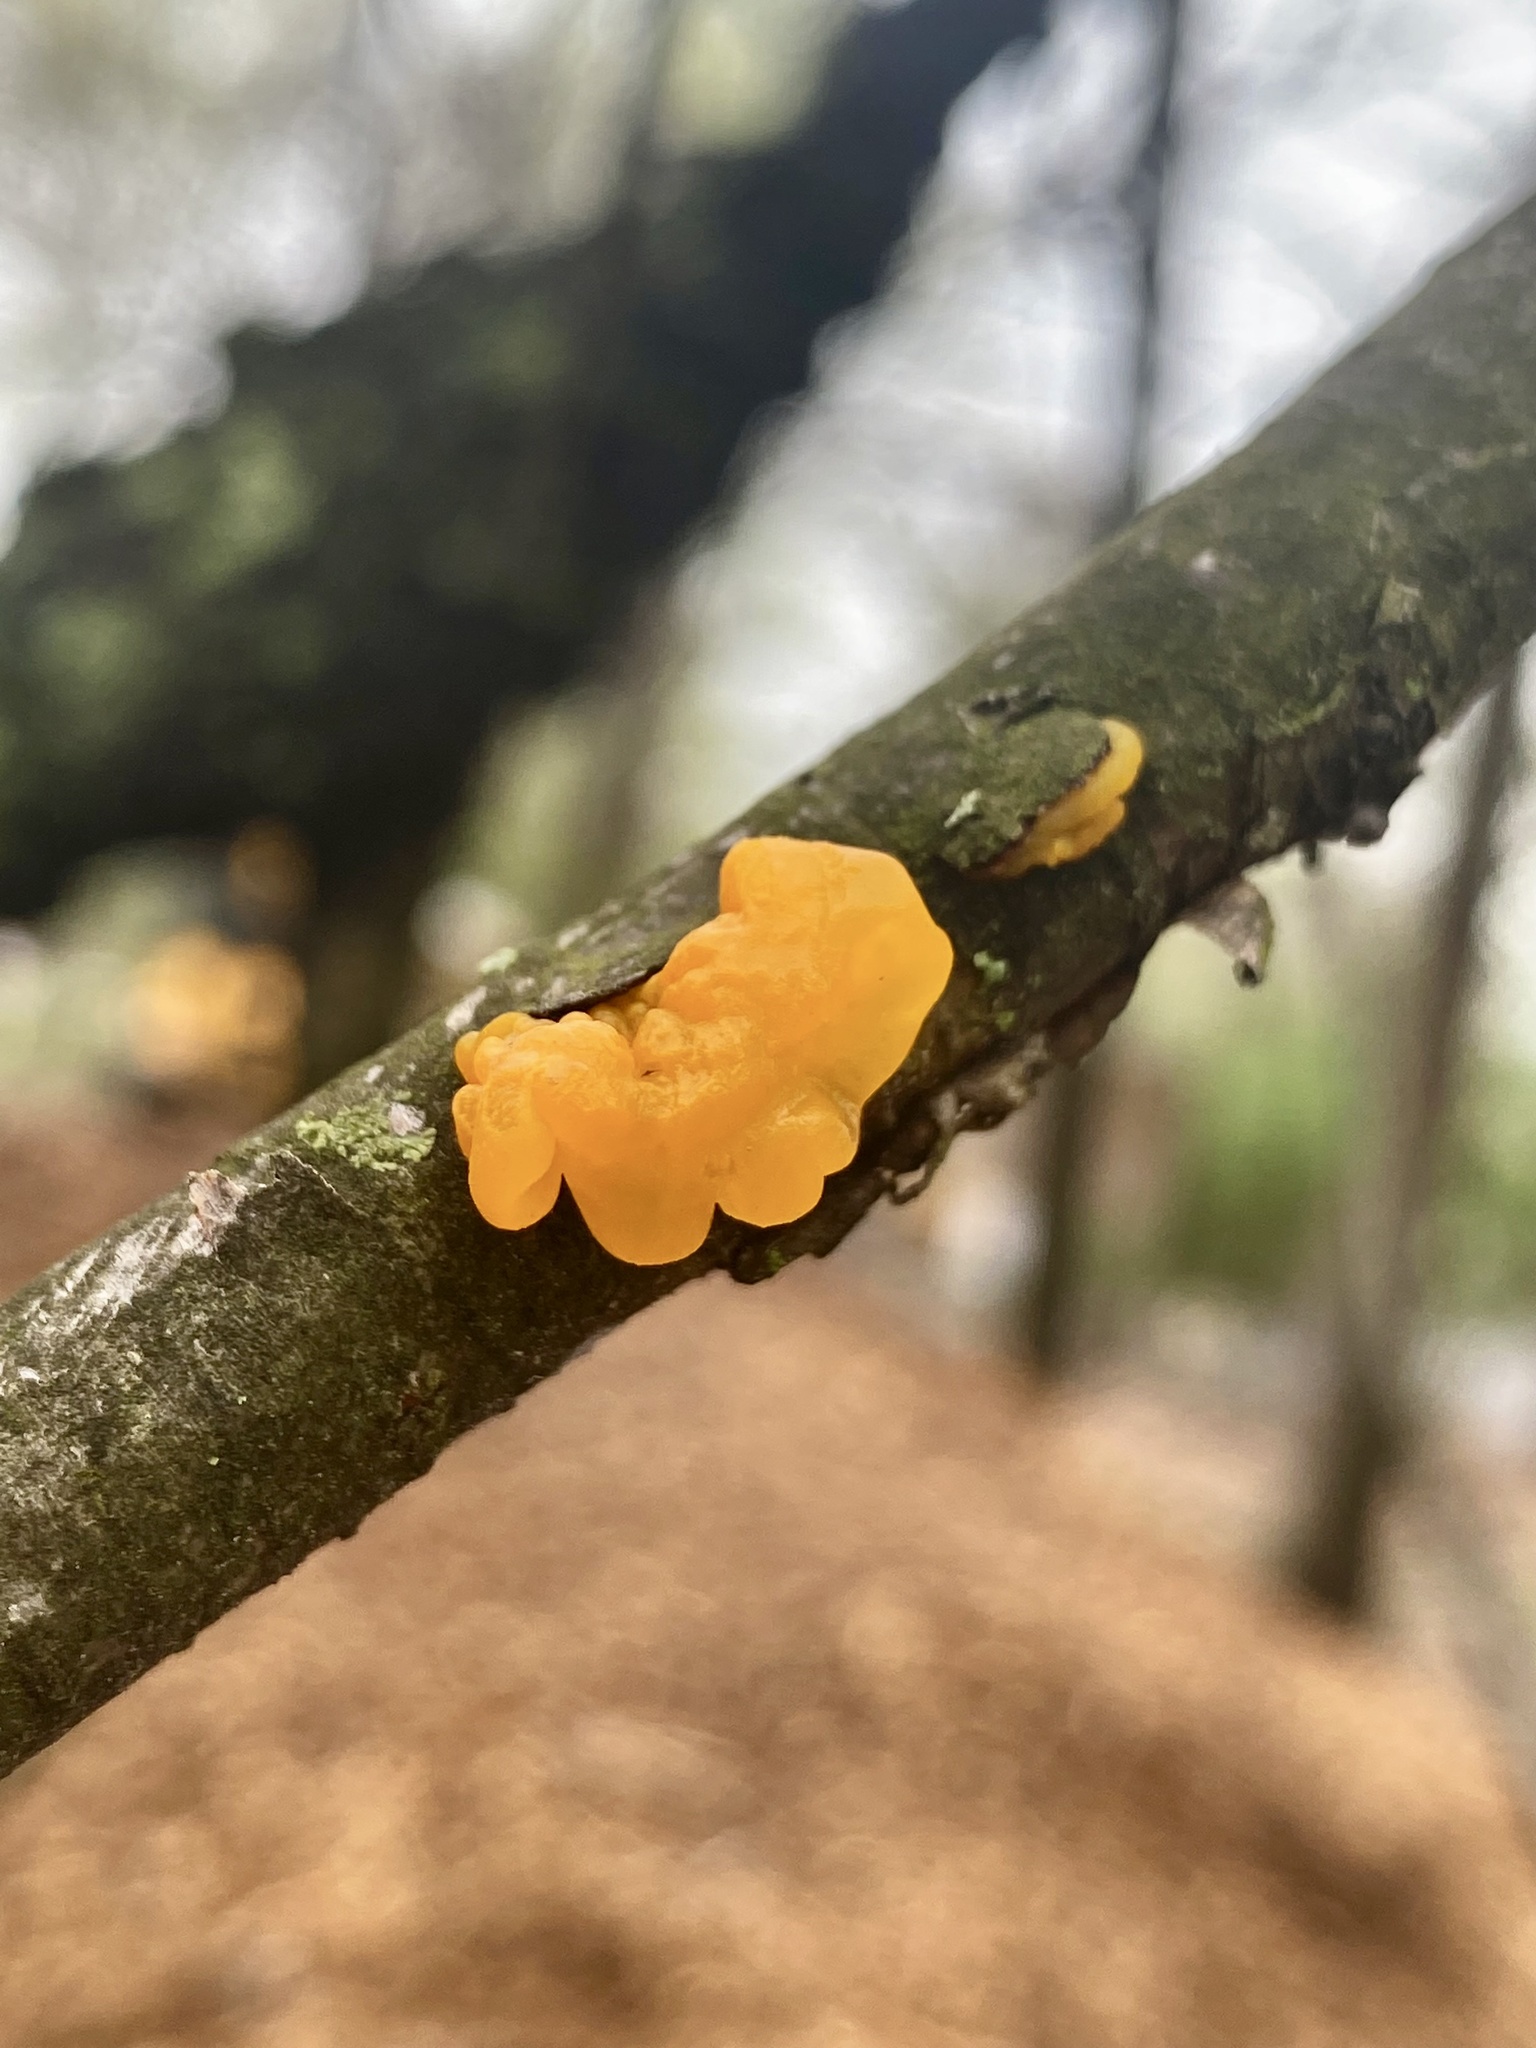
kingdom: Fungi
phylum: Basidiomycota
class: Tremellomycetes
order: Tremellales
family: Tremellaceae
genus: Tremella
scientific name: Tremella mesenterica
